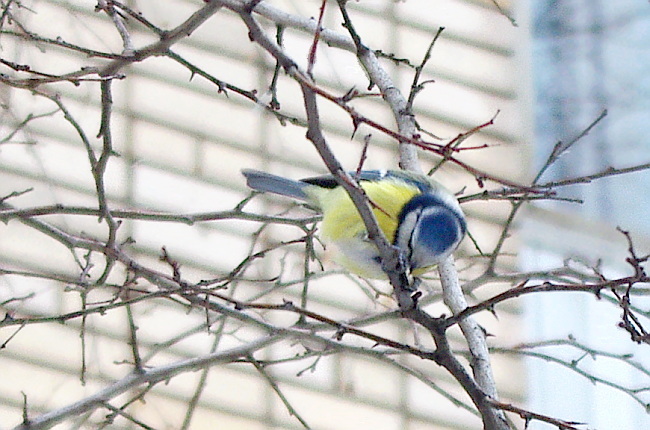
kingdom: Animalia
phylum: Chordata
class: Aves
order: Passeriformes
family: Paridae
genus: Cyanistes
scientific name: Cyanistes caeruleus
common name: Eurasian blue tit
